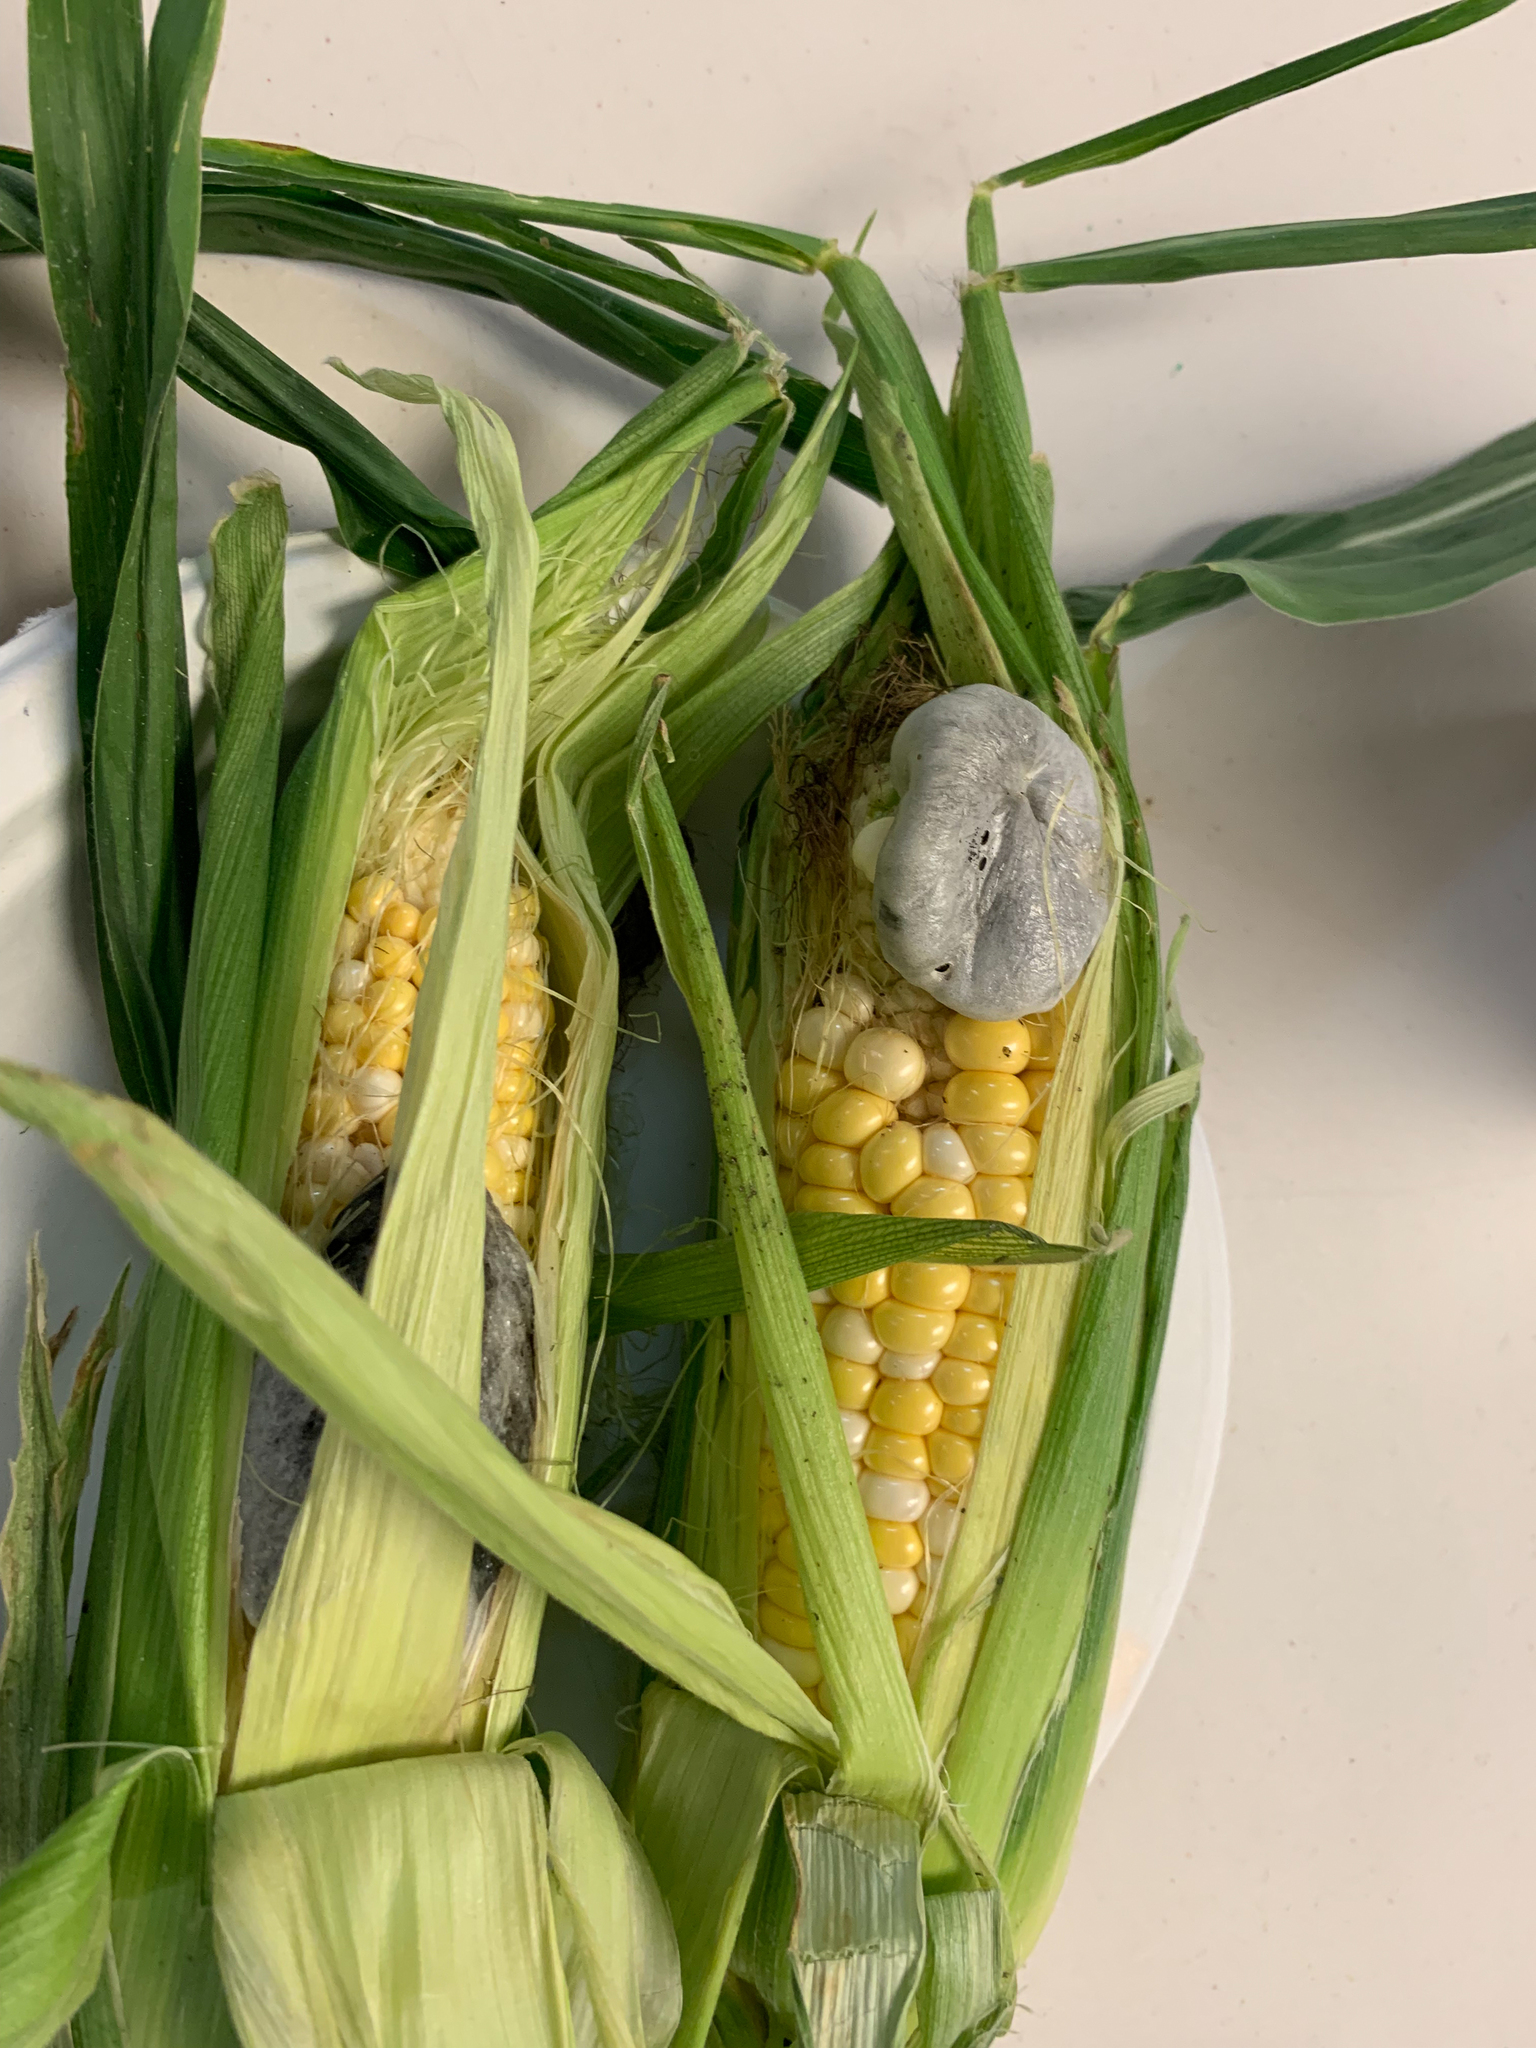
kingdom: Fungi
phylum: Basidiomycota
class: Ustilaginomycetes
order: Ustilaginales
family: Ustilaginaceae
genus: Mycosarcoma
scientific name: Mycosarcoma maydis
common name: Corn smut
